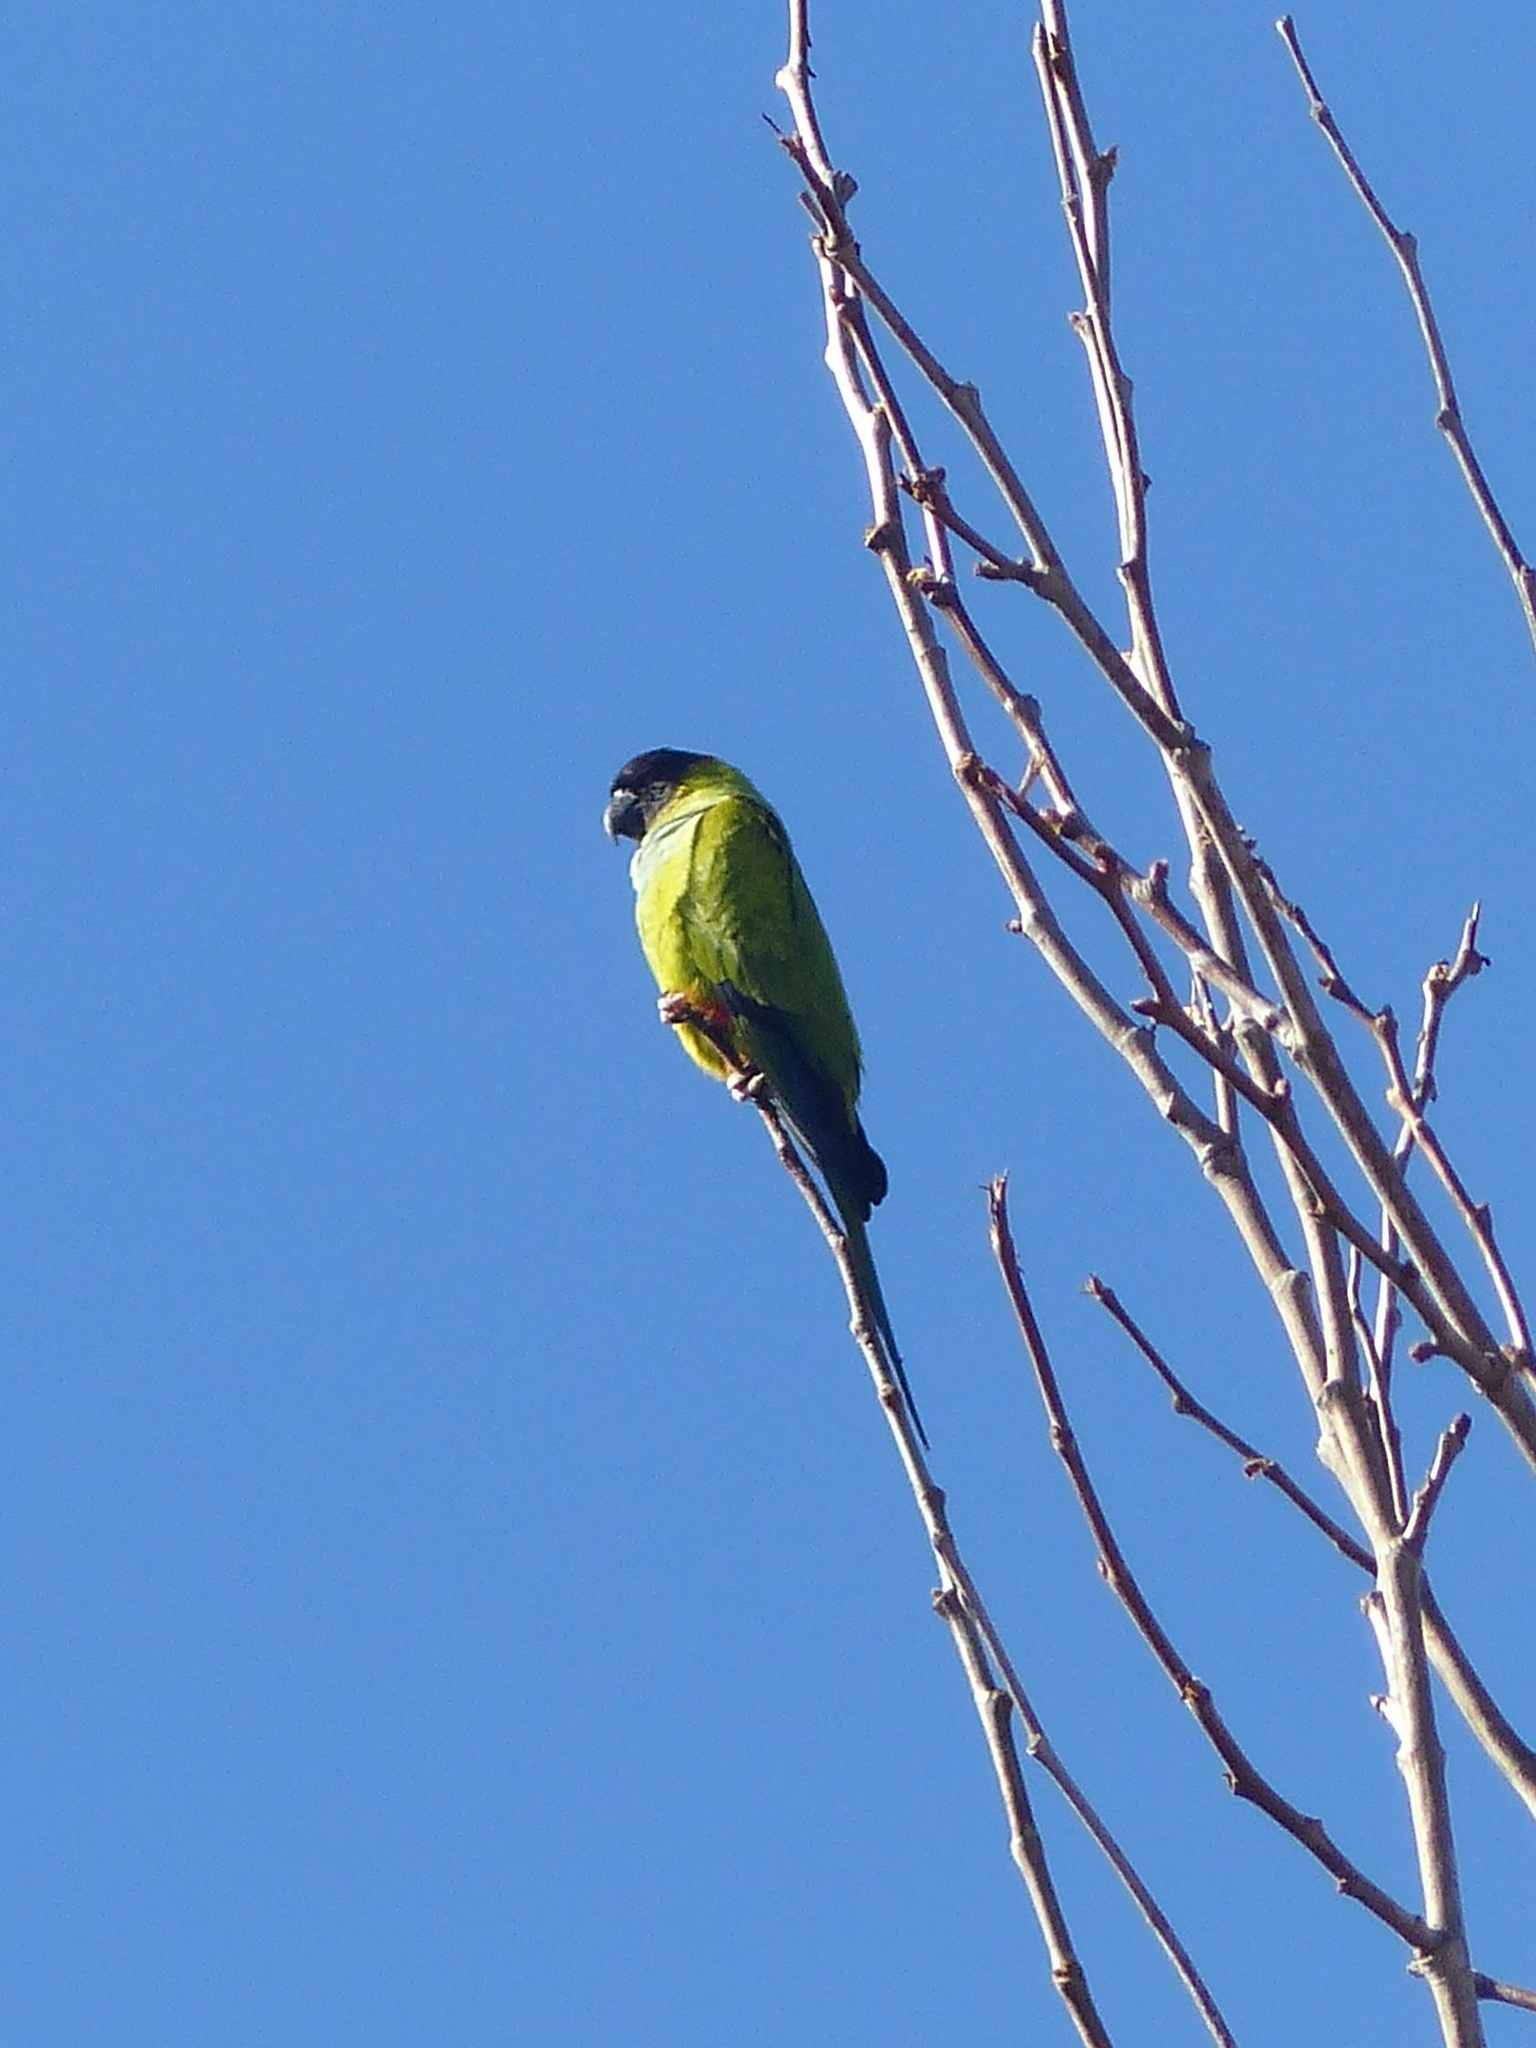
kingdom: Animalia
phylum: Chordata
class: Aves
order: Psittaciformes
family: Psittacidae
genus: Nandayus
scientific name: Nandayus nenday
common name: Nanday parakeet
